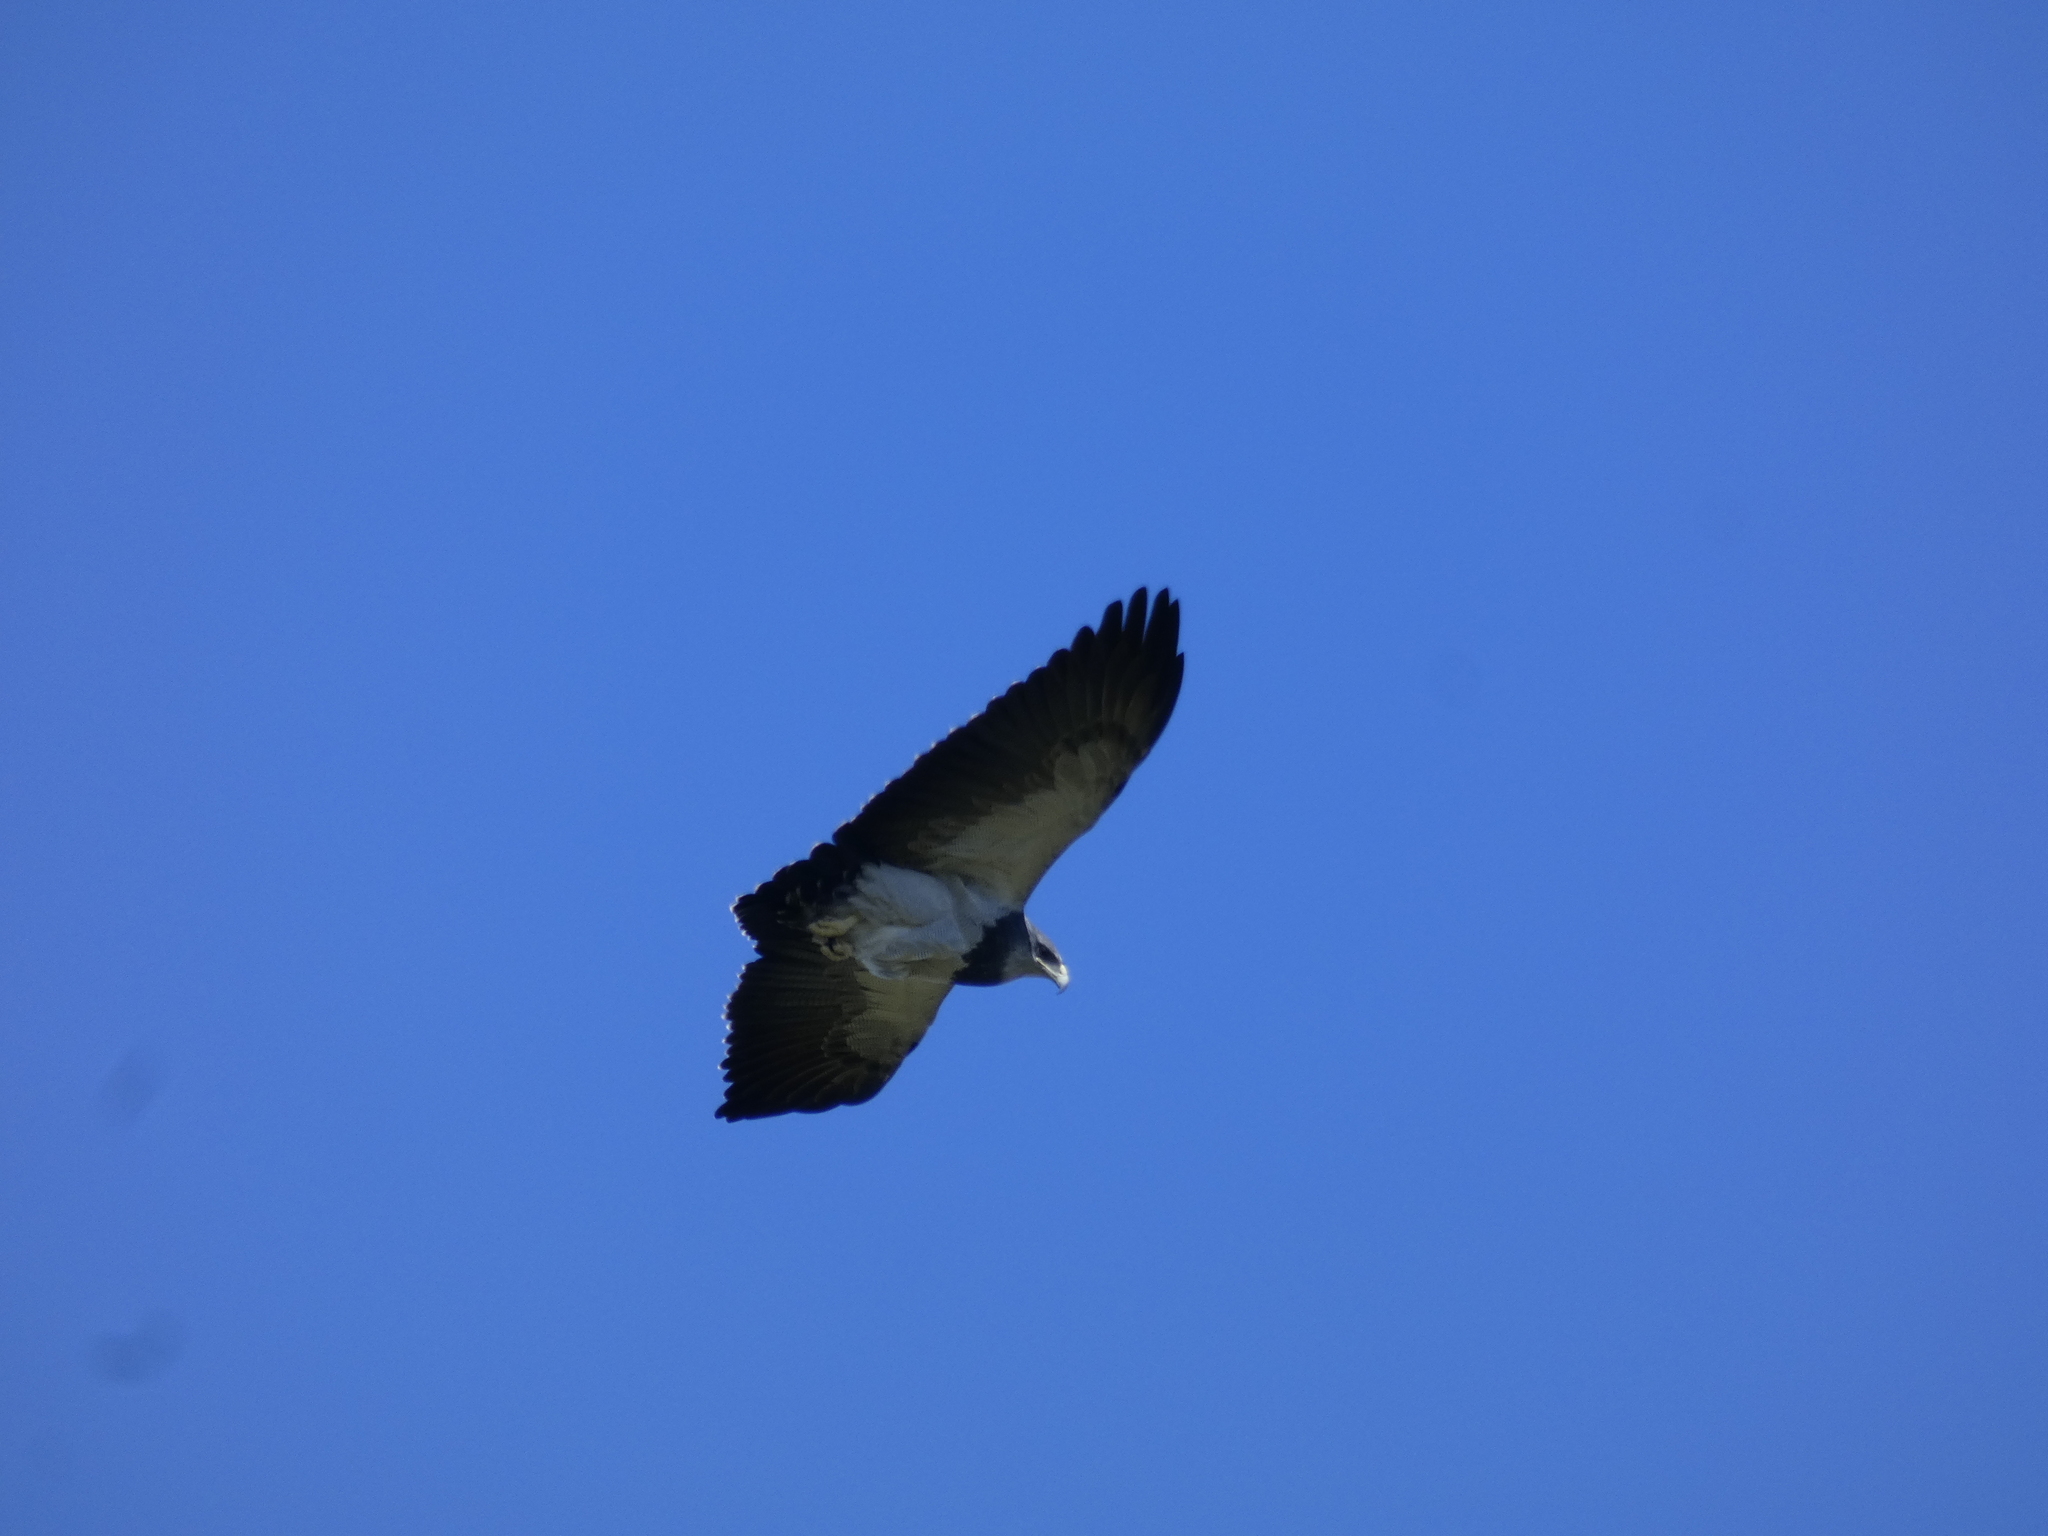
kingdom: Animalia
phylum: Chordata
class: Aves
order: Accipitriformes
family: Accipitridae
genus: Geranoaetus
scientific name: Geranoaetus melanoleucus
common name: Black-chested buzzard-eagle
